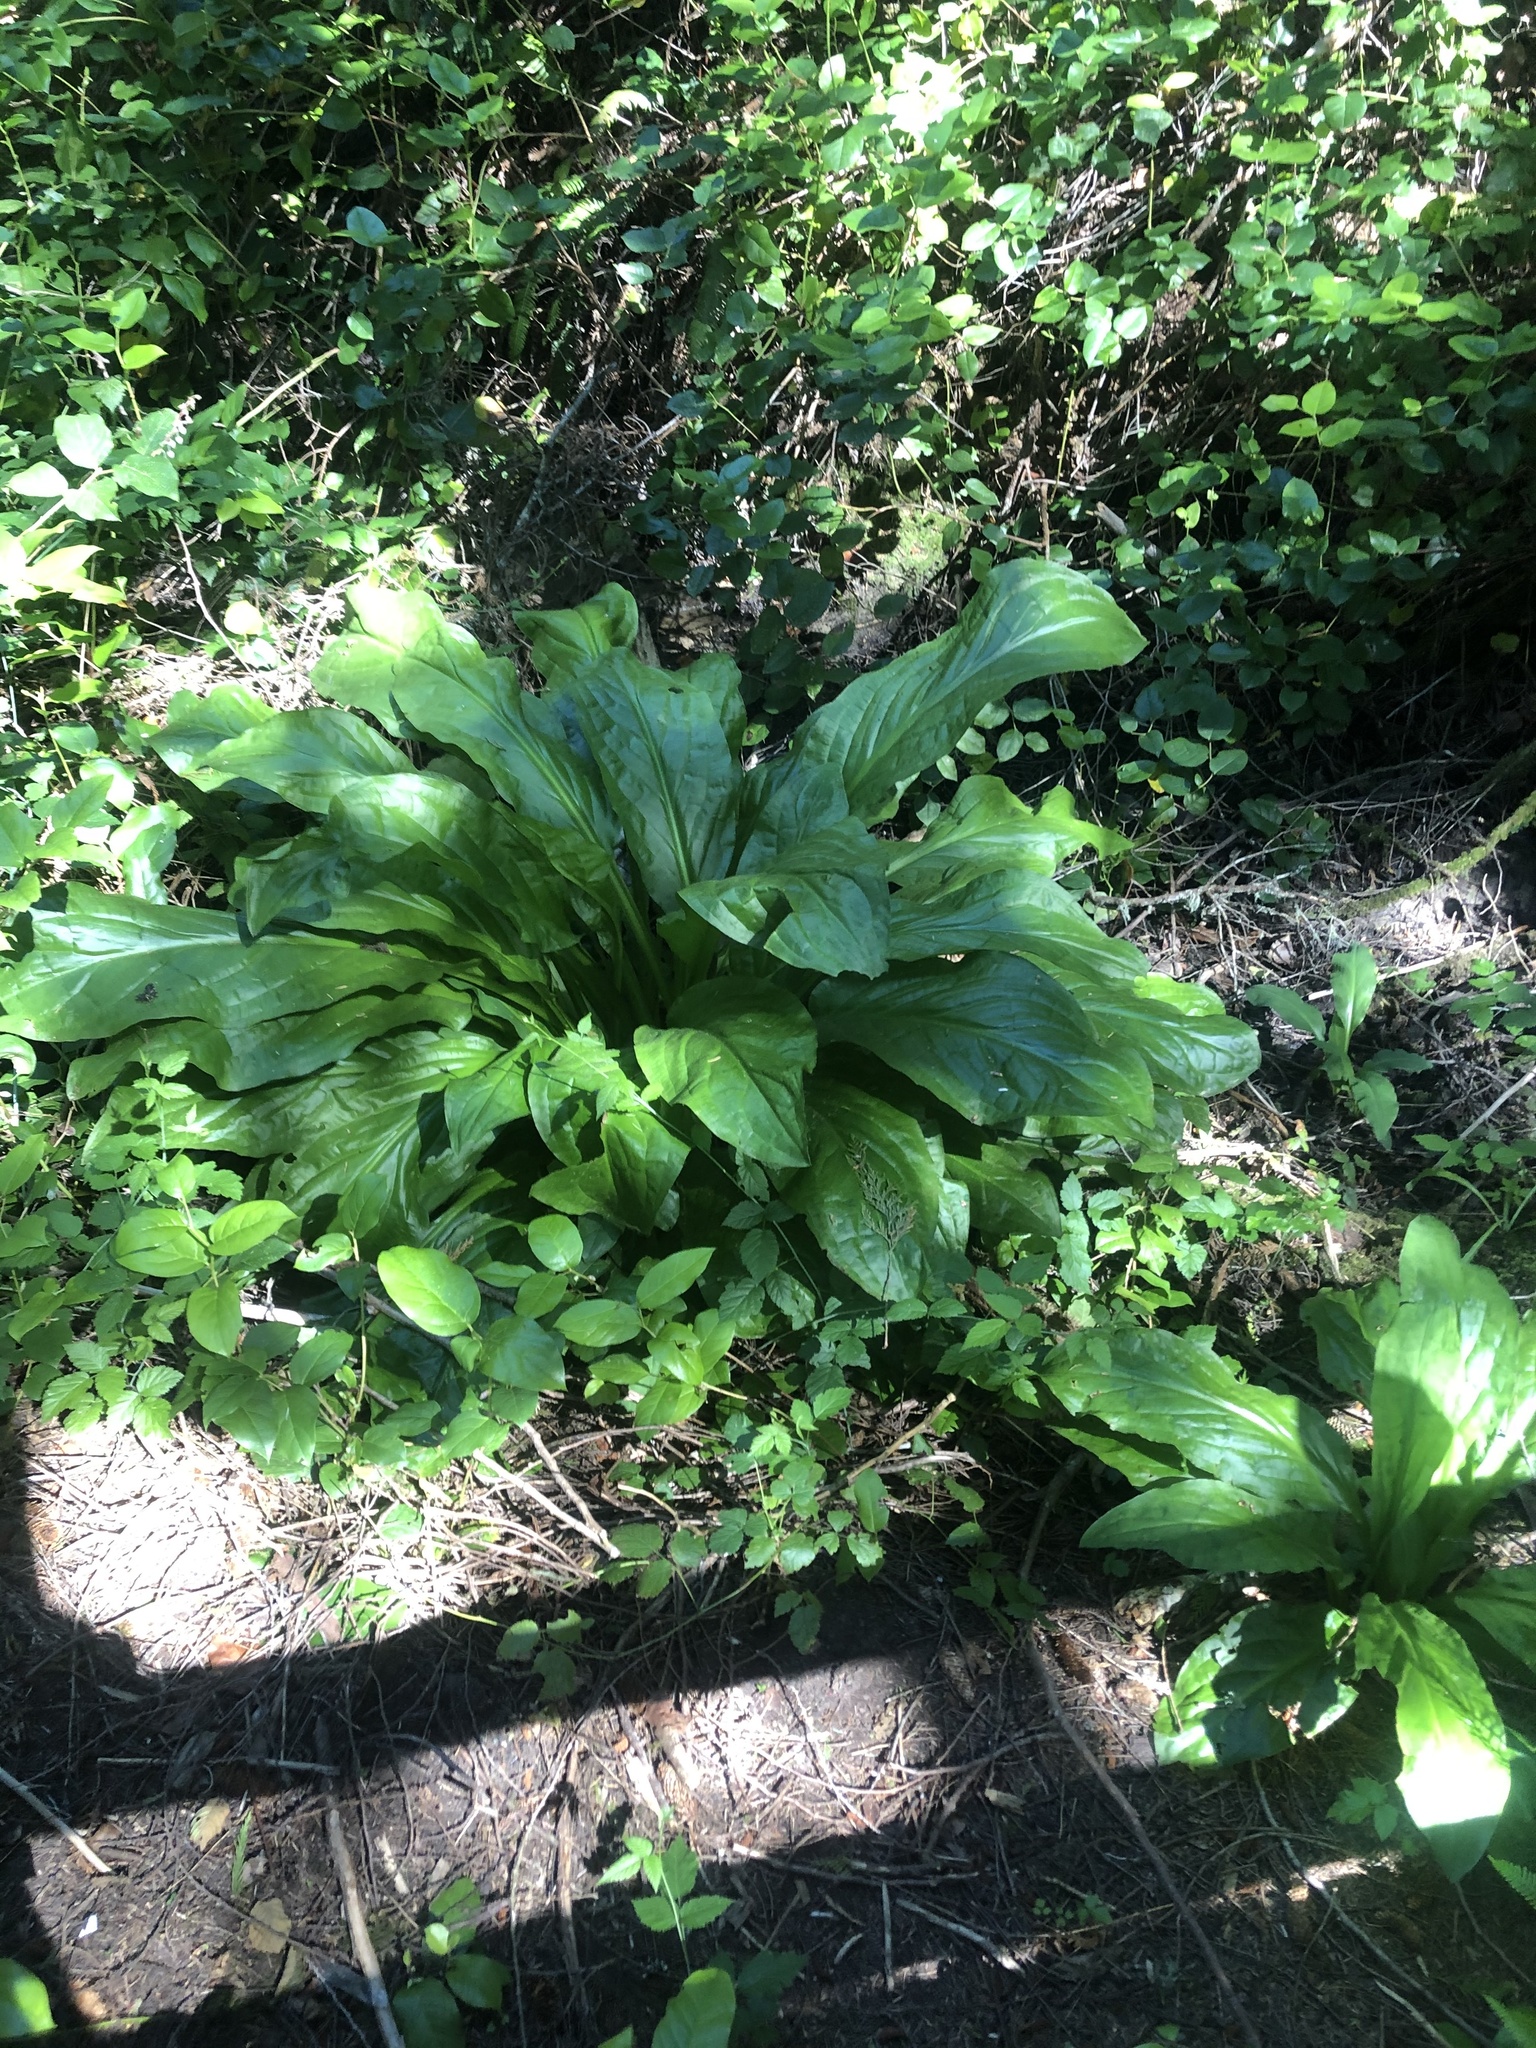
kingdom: Plantae
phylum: Tracheophyta
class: Liliopsida
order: Alismatales
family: Araceae
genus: Lysichiton
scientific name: Lysichiton americanus
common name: American skunk cabbage
